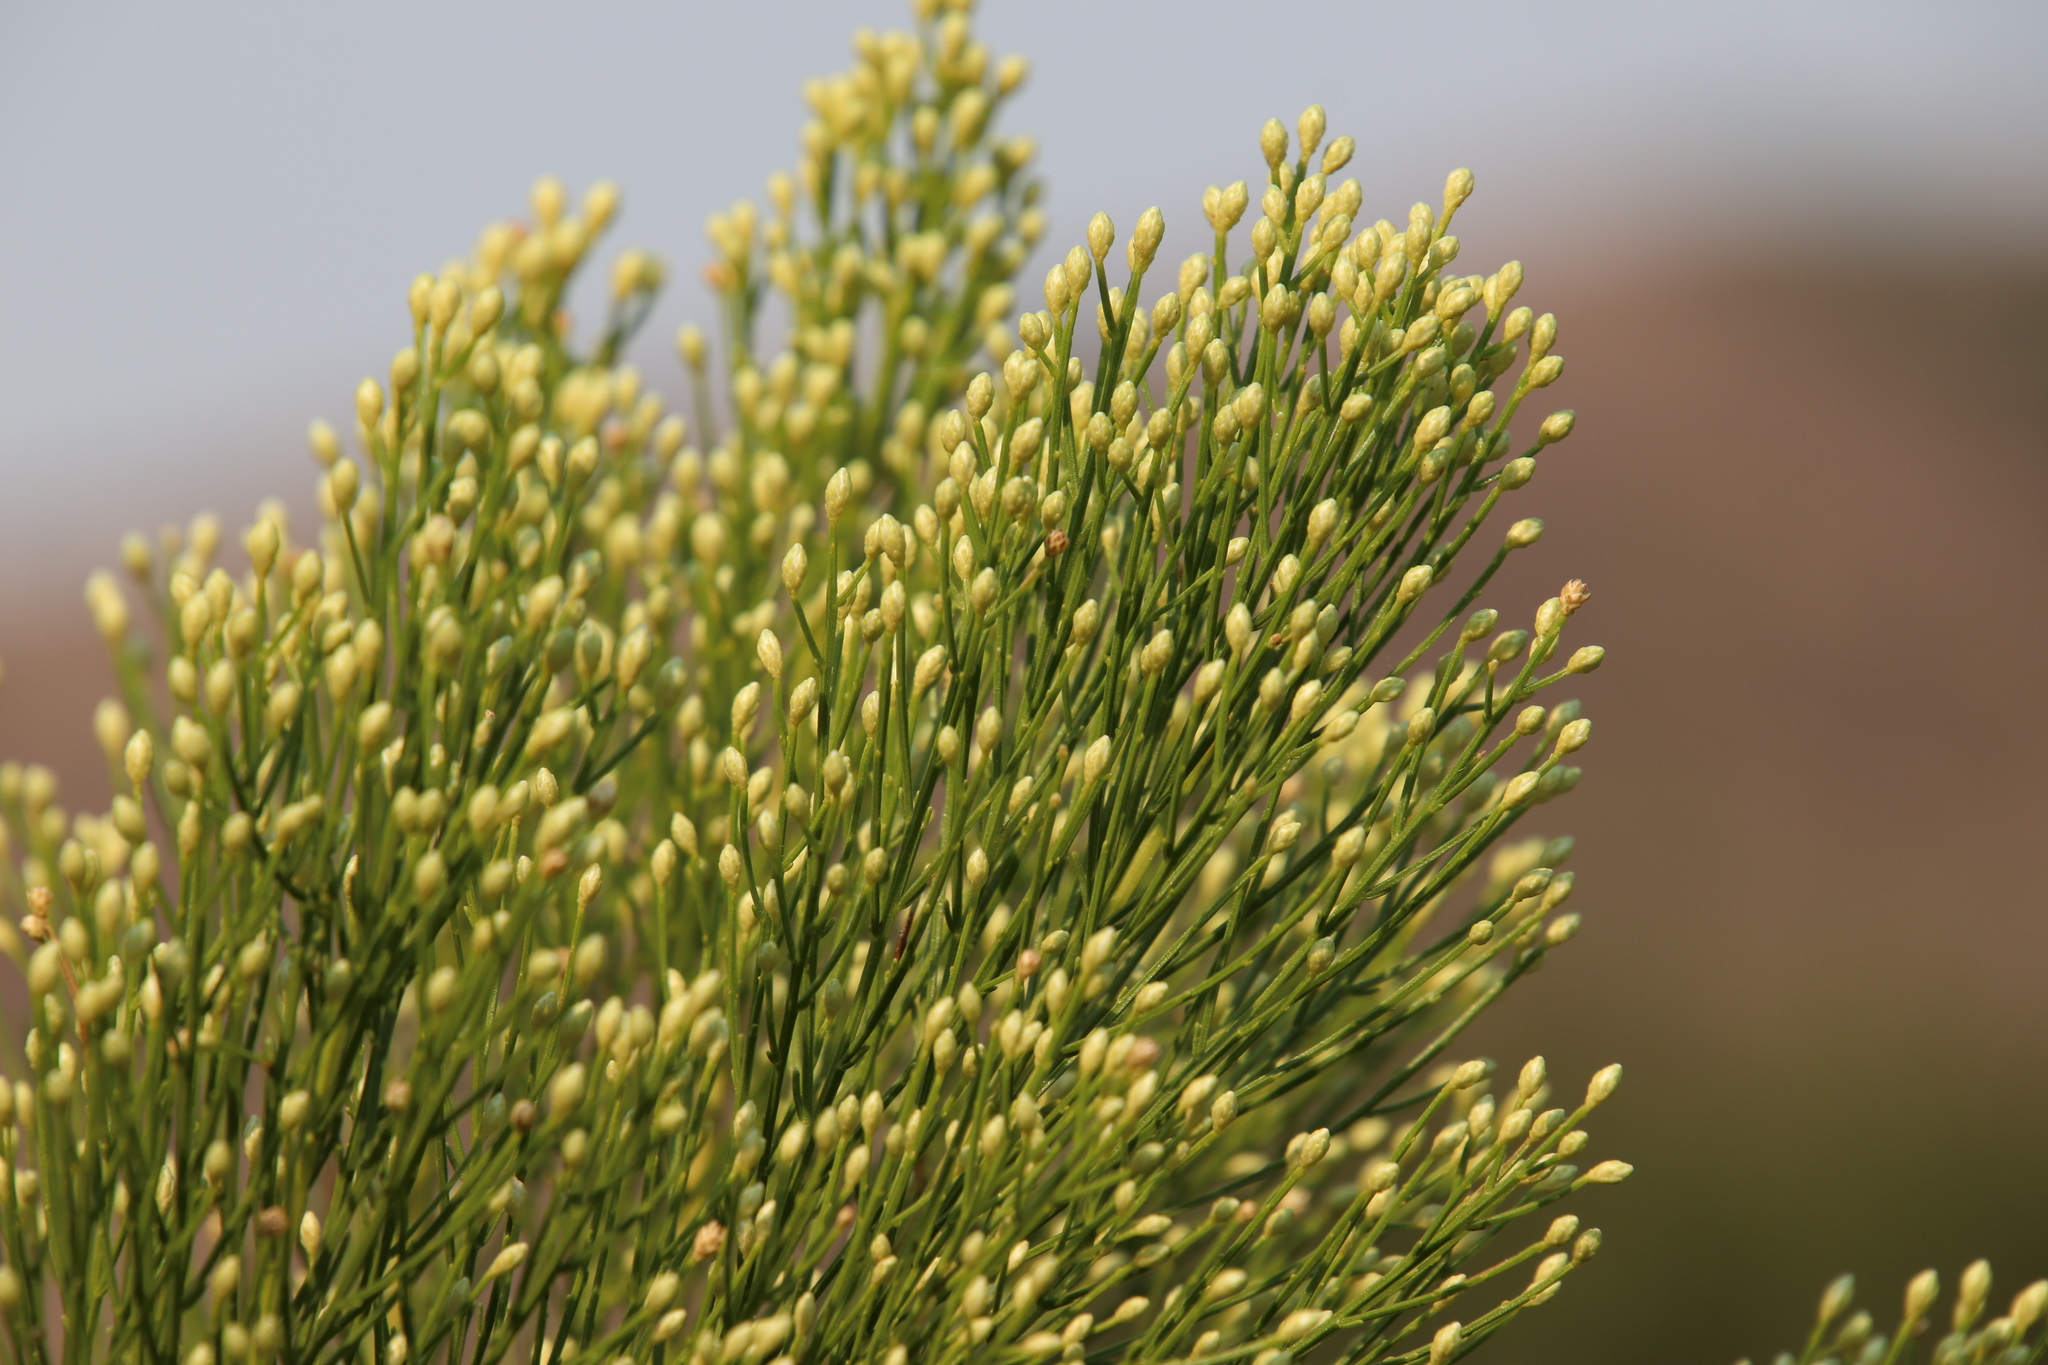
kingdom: Plantae
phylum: Tracheophyta
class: Magnoliopsida
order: Asterales
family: Asteraceae
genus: Baccharis
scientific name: Baccharis sarothroides
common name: Desert-broom
